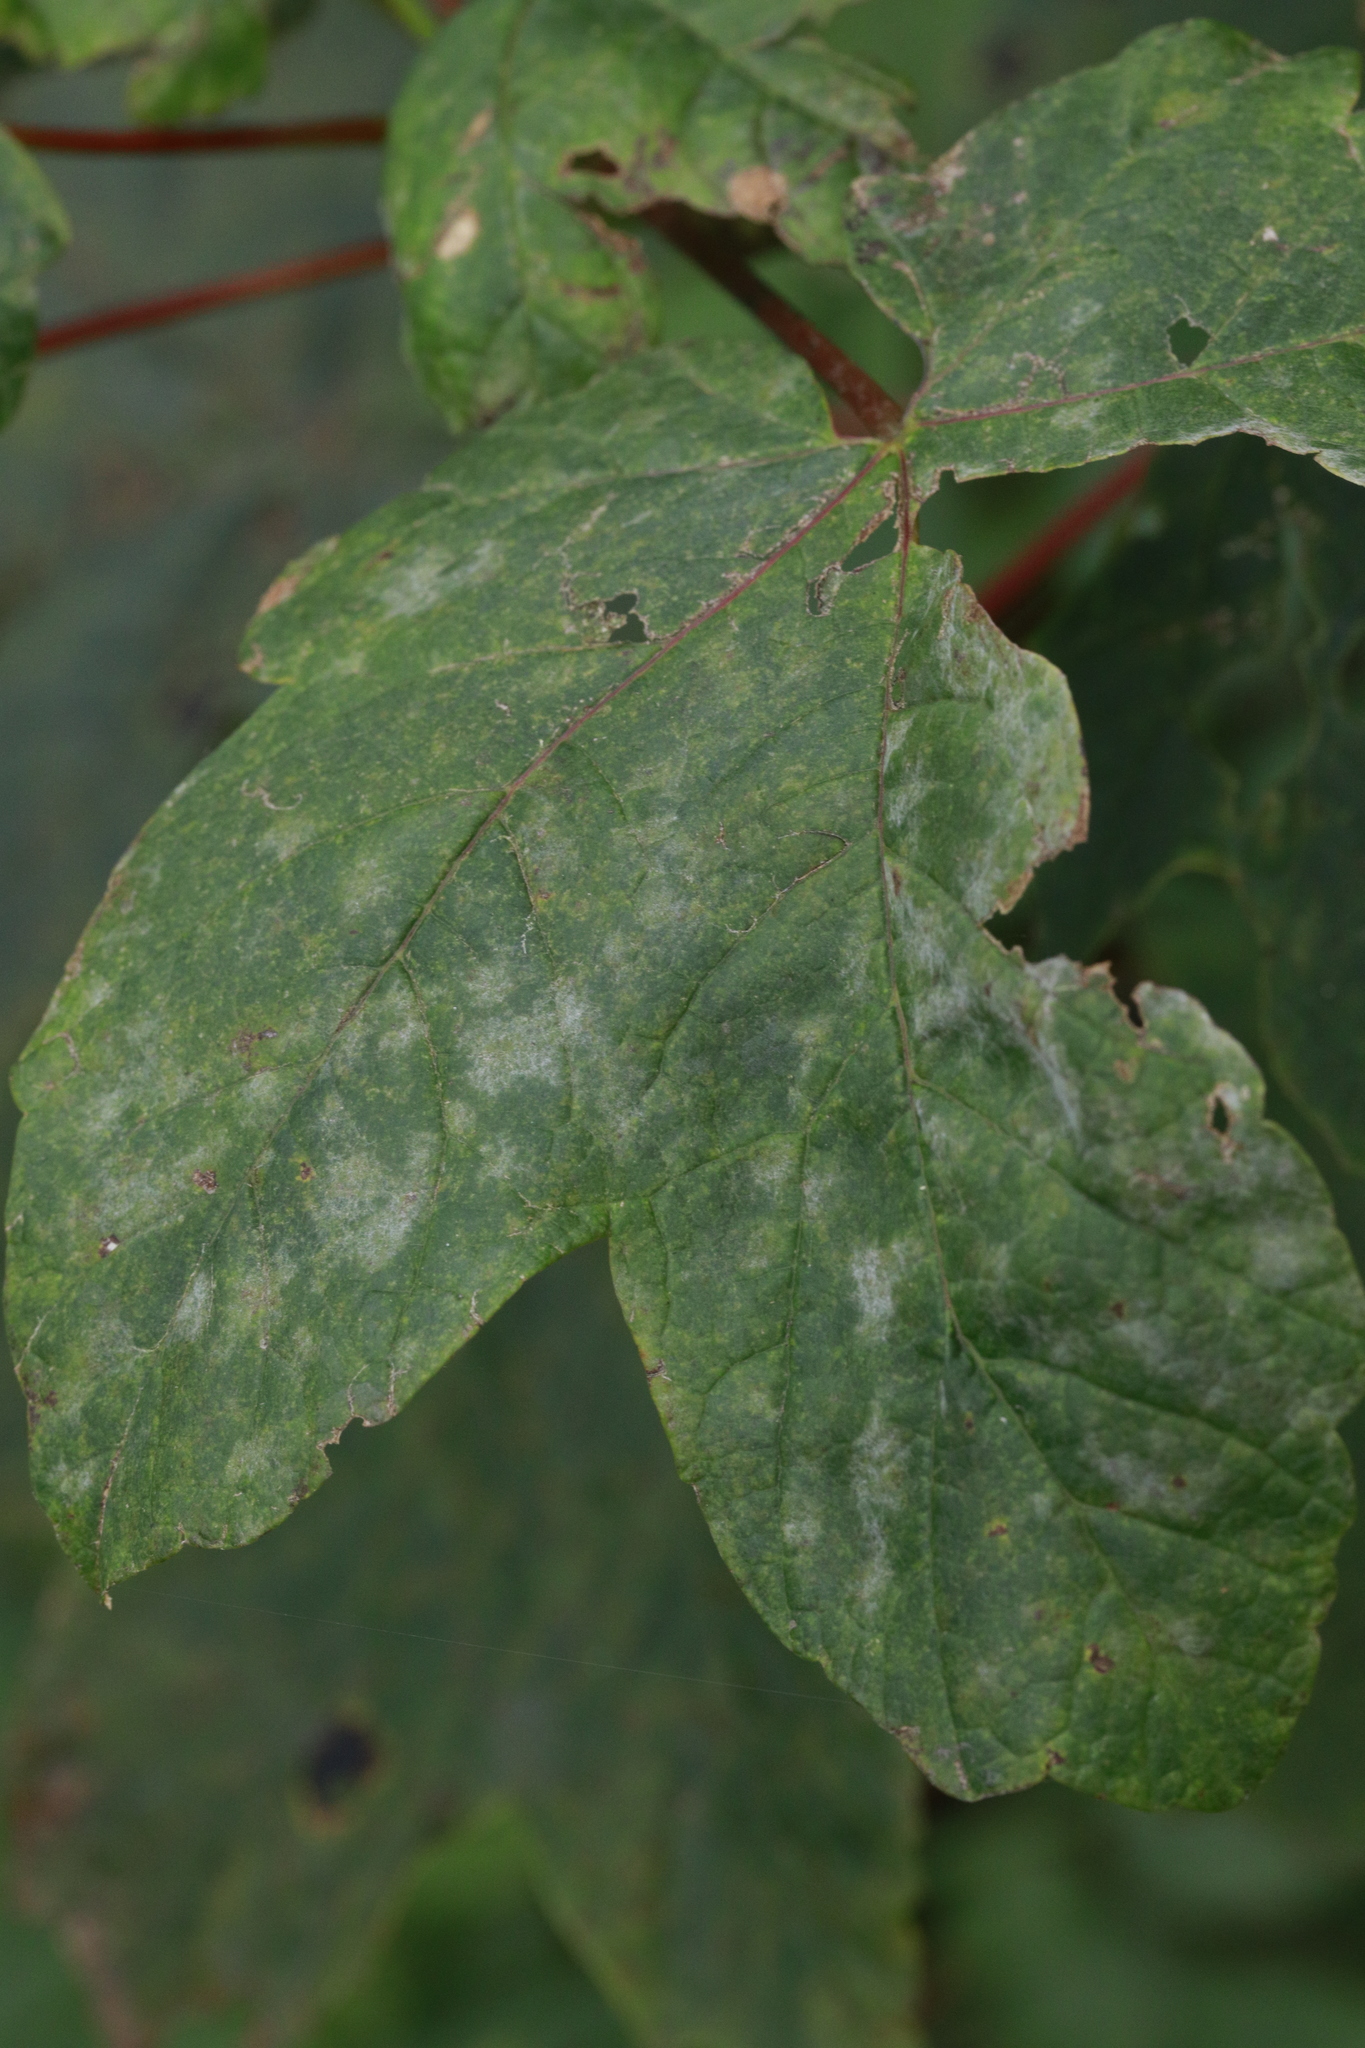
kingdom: Fungi
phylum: Ascomycota
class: Leotiomycetes
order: Helotiales
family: Erysiphaceae
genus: Sawadaea
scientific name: Sawadaea bicornis
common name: Maple mildew
